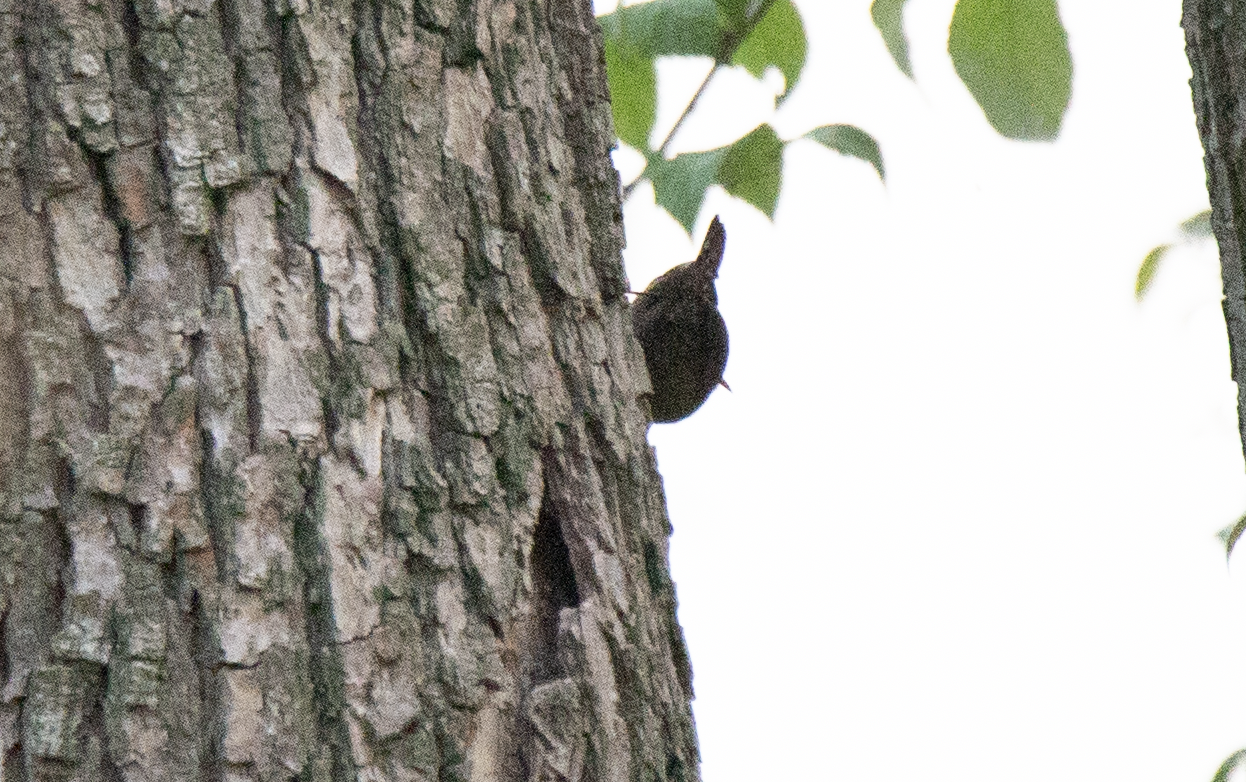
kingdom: Animalia
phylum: Chordata
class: Aves
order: Passeriformes
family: Troglodytidae
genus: Troglodytes
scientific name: Troglodytes troglodytes
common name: Eurasian wren
